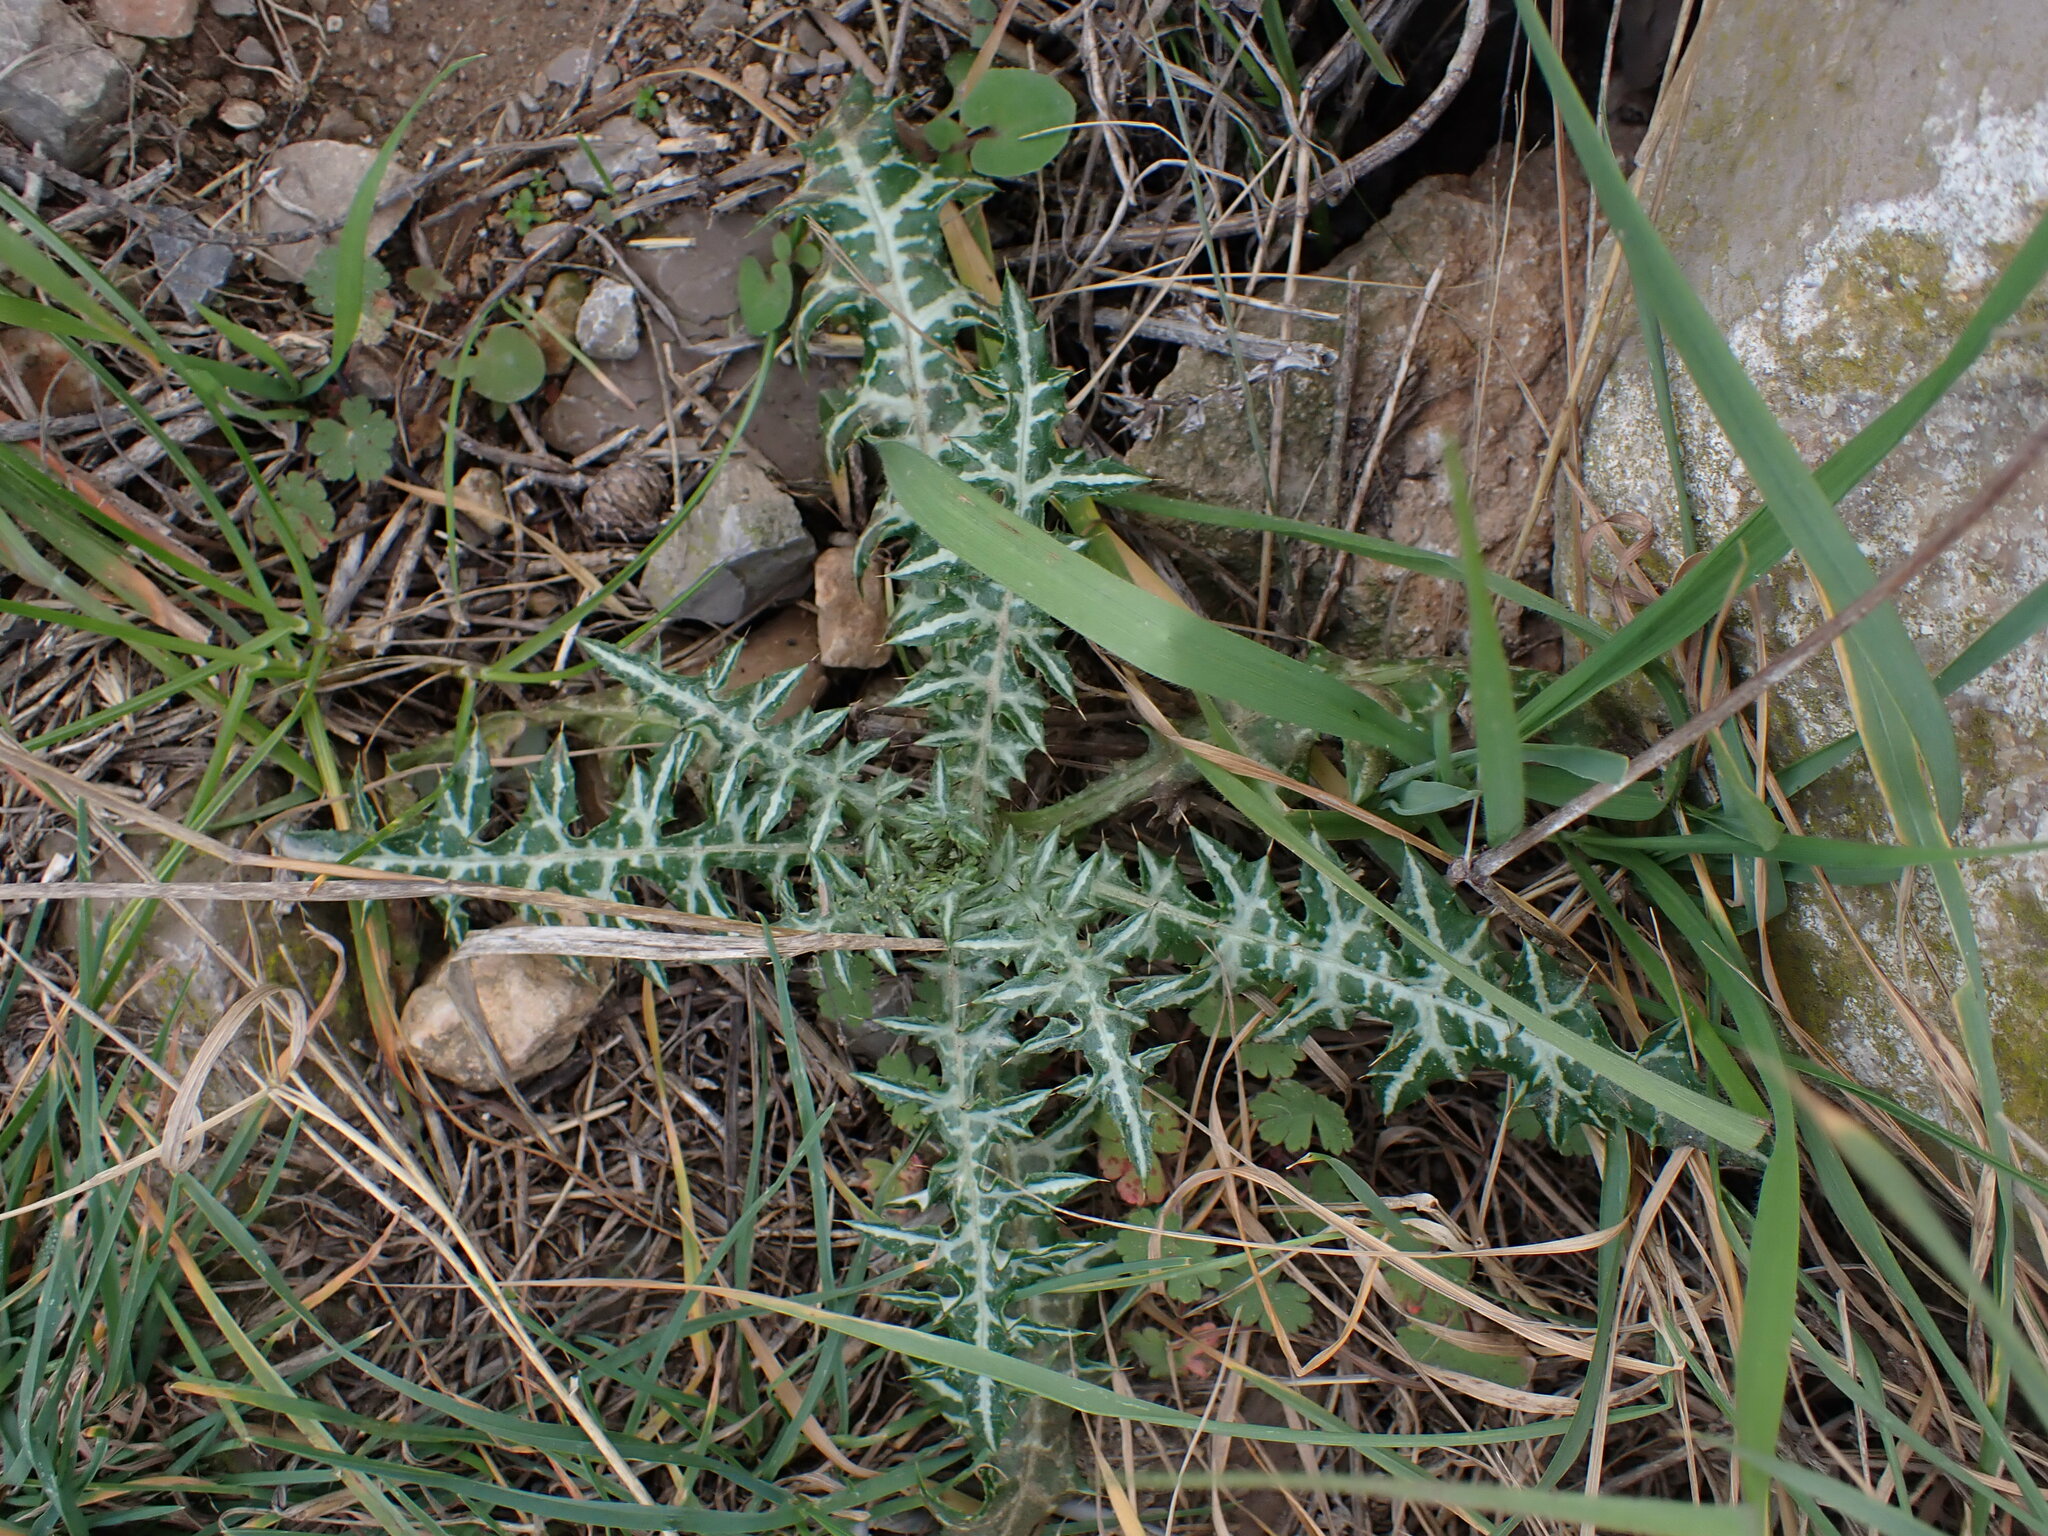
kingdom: Plantae
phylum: Tracheophyta
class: Magnoliopsida
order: Asterales
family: Asteraceae
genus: Galactites
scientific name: Galactites tomentosa
